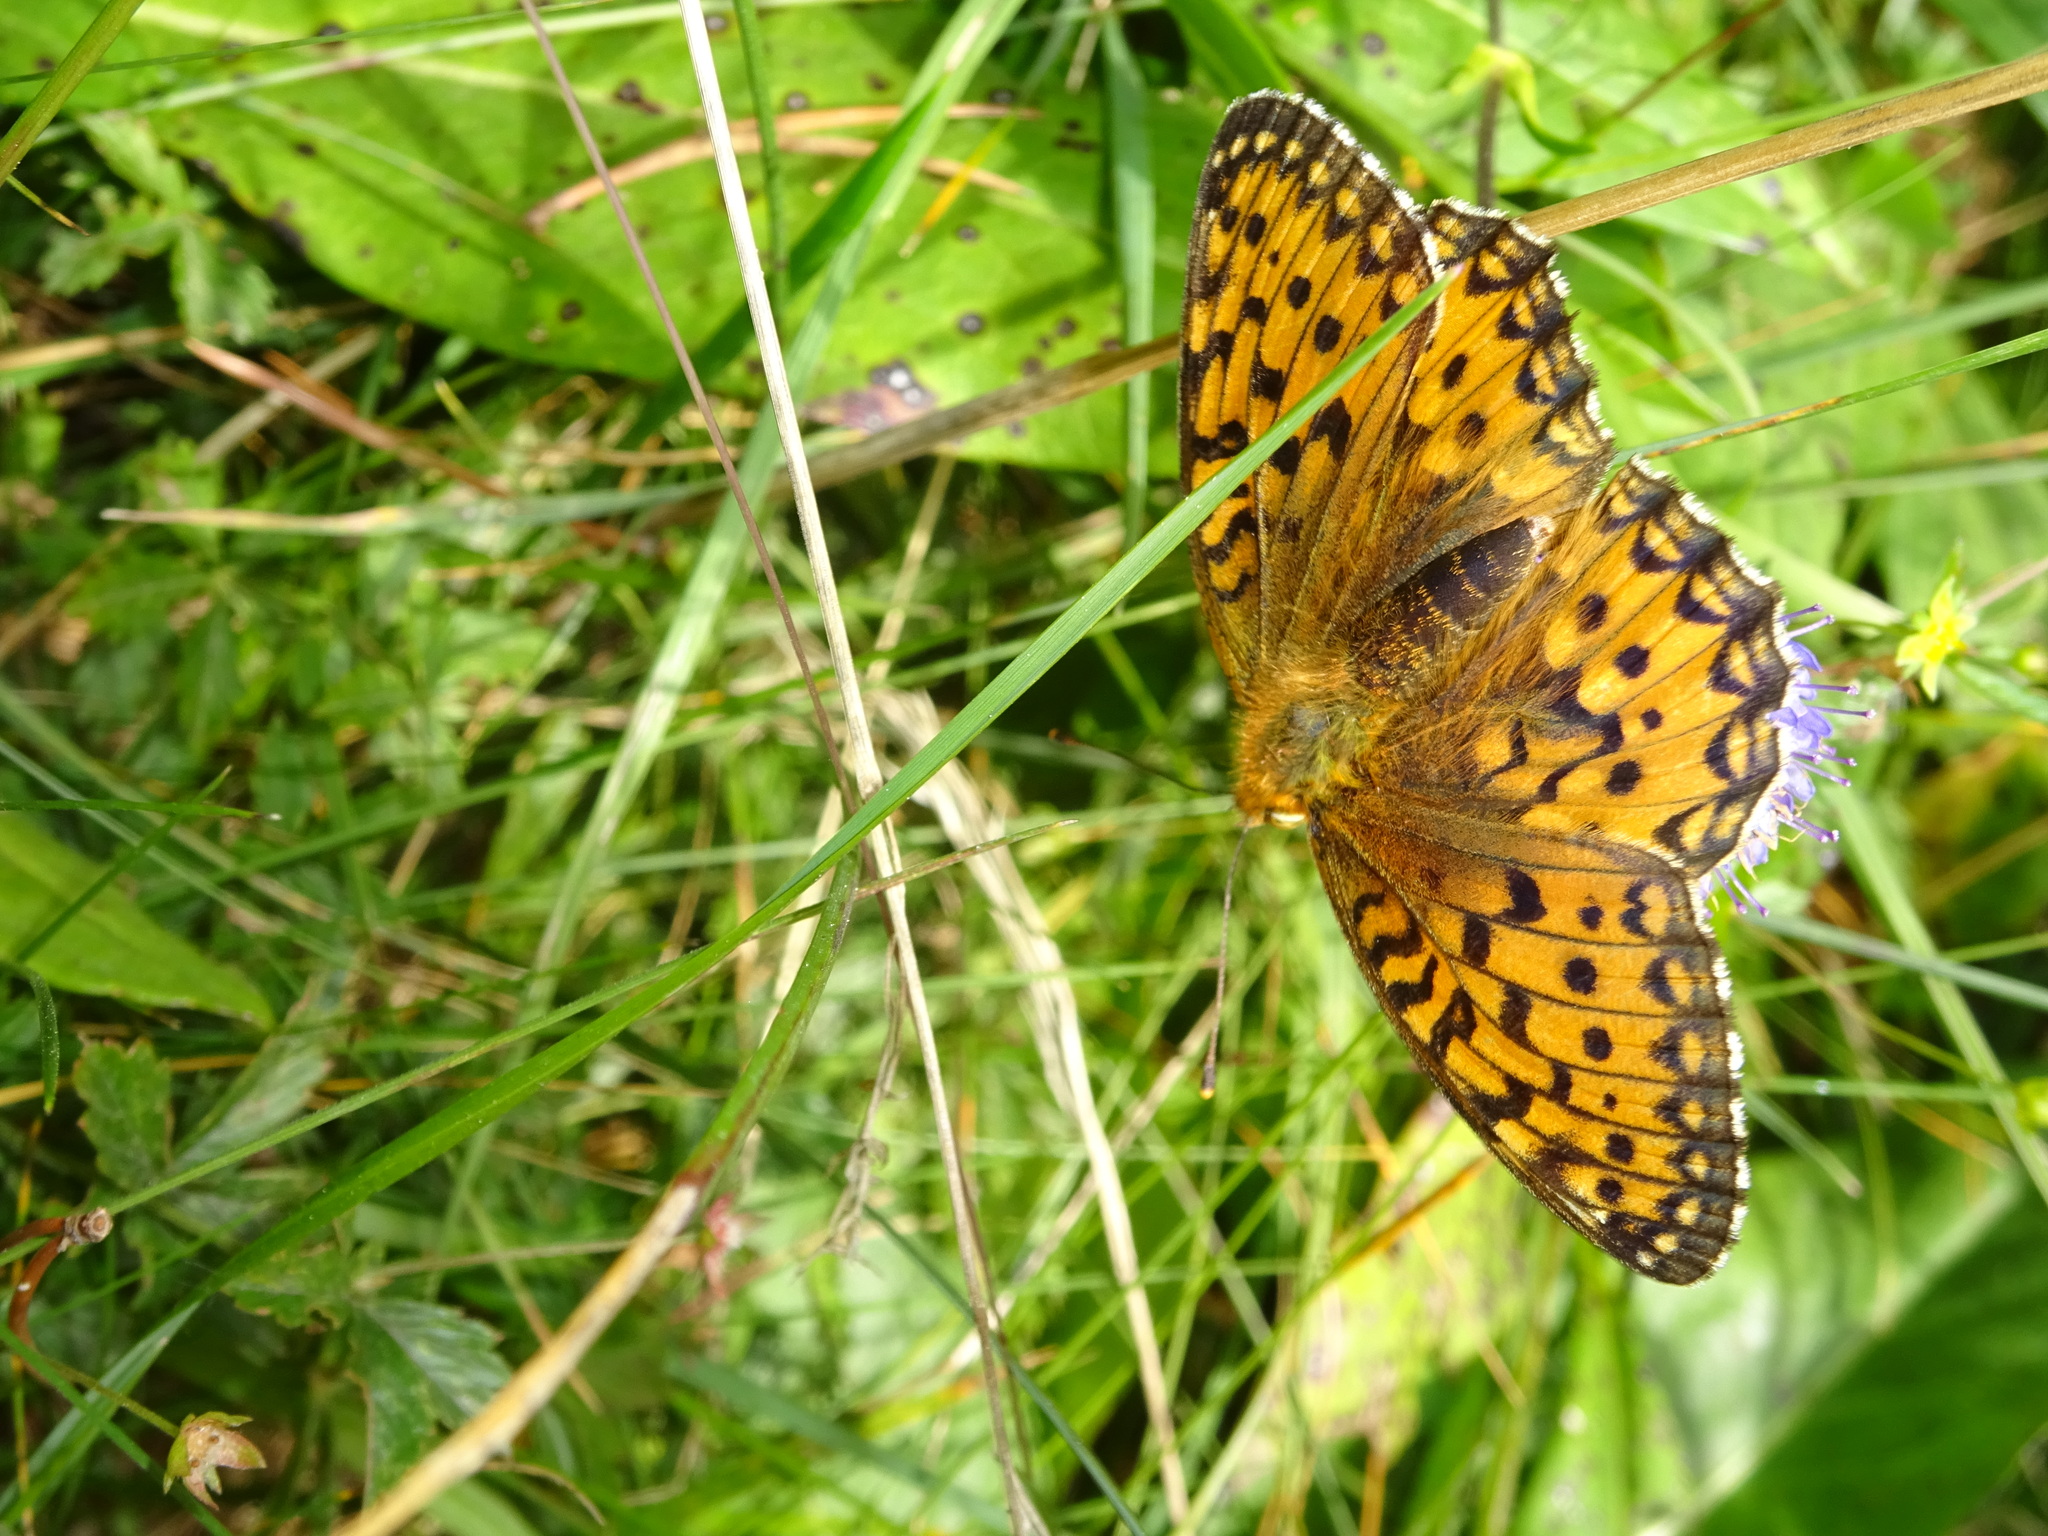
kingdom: Animalia
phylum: Arthropoda
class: Insecta
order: Lepidoptera
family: Nymphalidae
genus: Speyeria
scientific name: Speyeria aglaja
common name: Dark green fritillary
